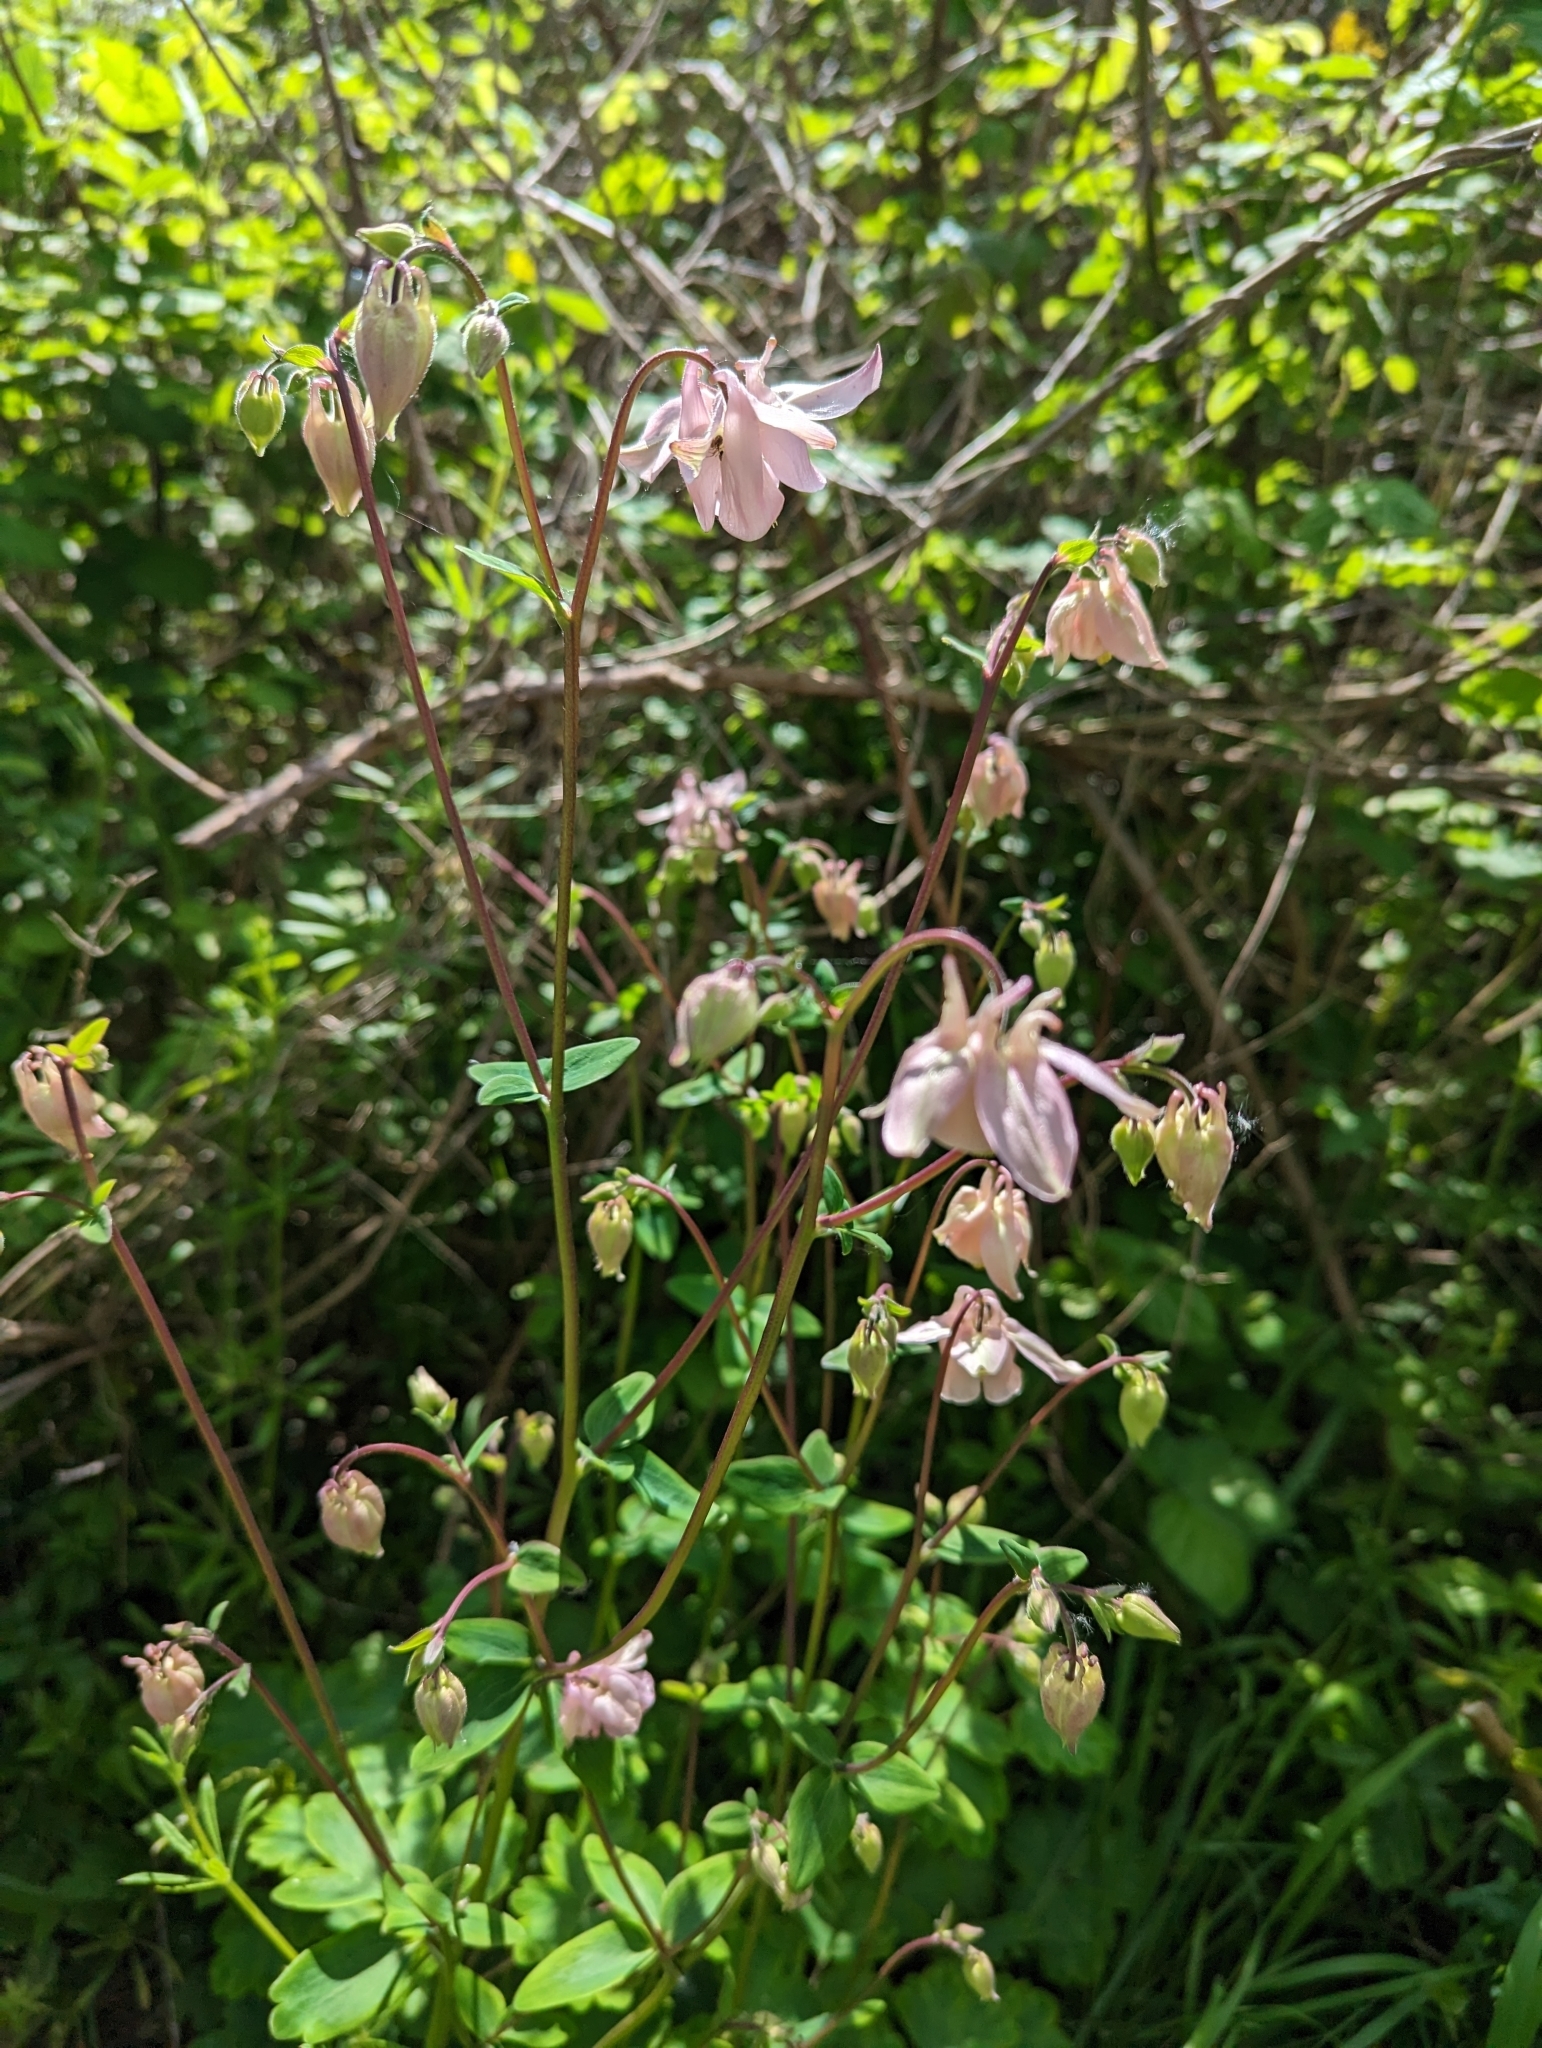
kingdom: Plantae
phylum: Tracheophyta
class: Magnoliopsida
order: Ranunculales
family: Ranunculaceae
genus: Aquilegia
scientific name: Aquilegia vulgaris
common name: Columbine
